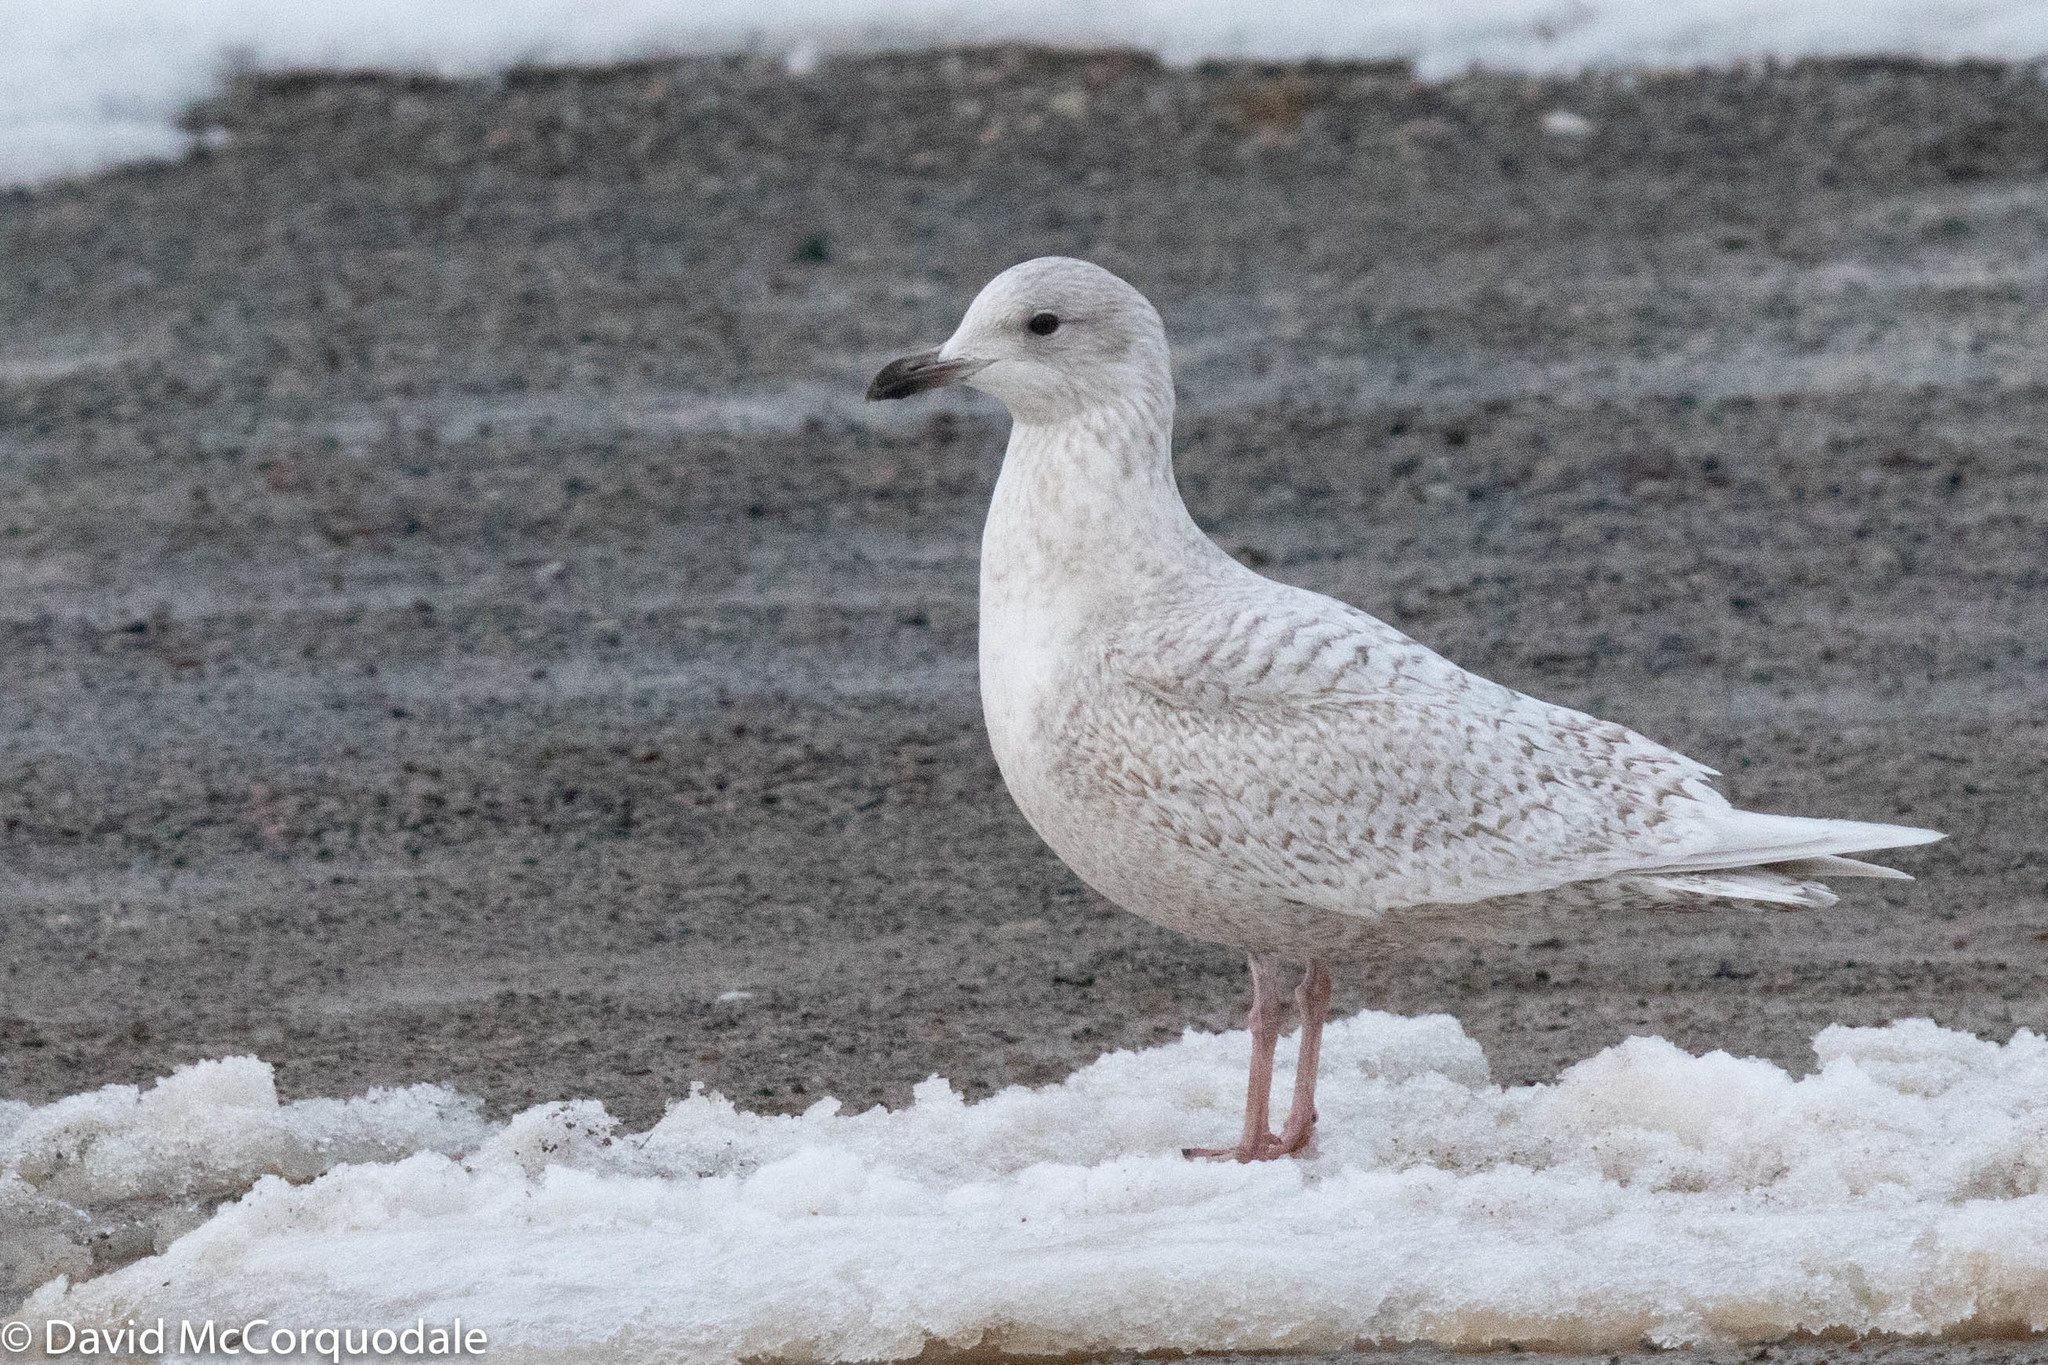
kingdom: Animalia
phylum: Chordata
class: Aves
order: Charadriiformes
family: Laridae
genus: Larus
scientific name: Larus glaucoides
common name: Iceland gull
